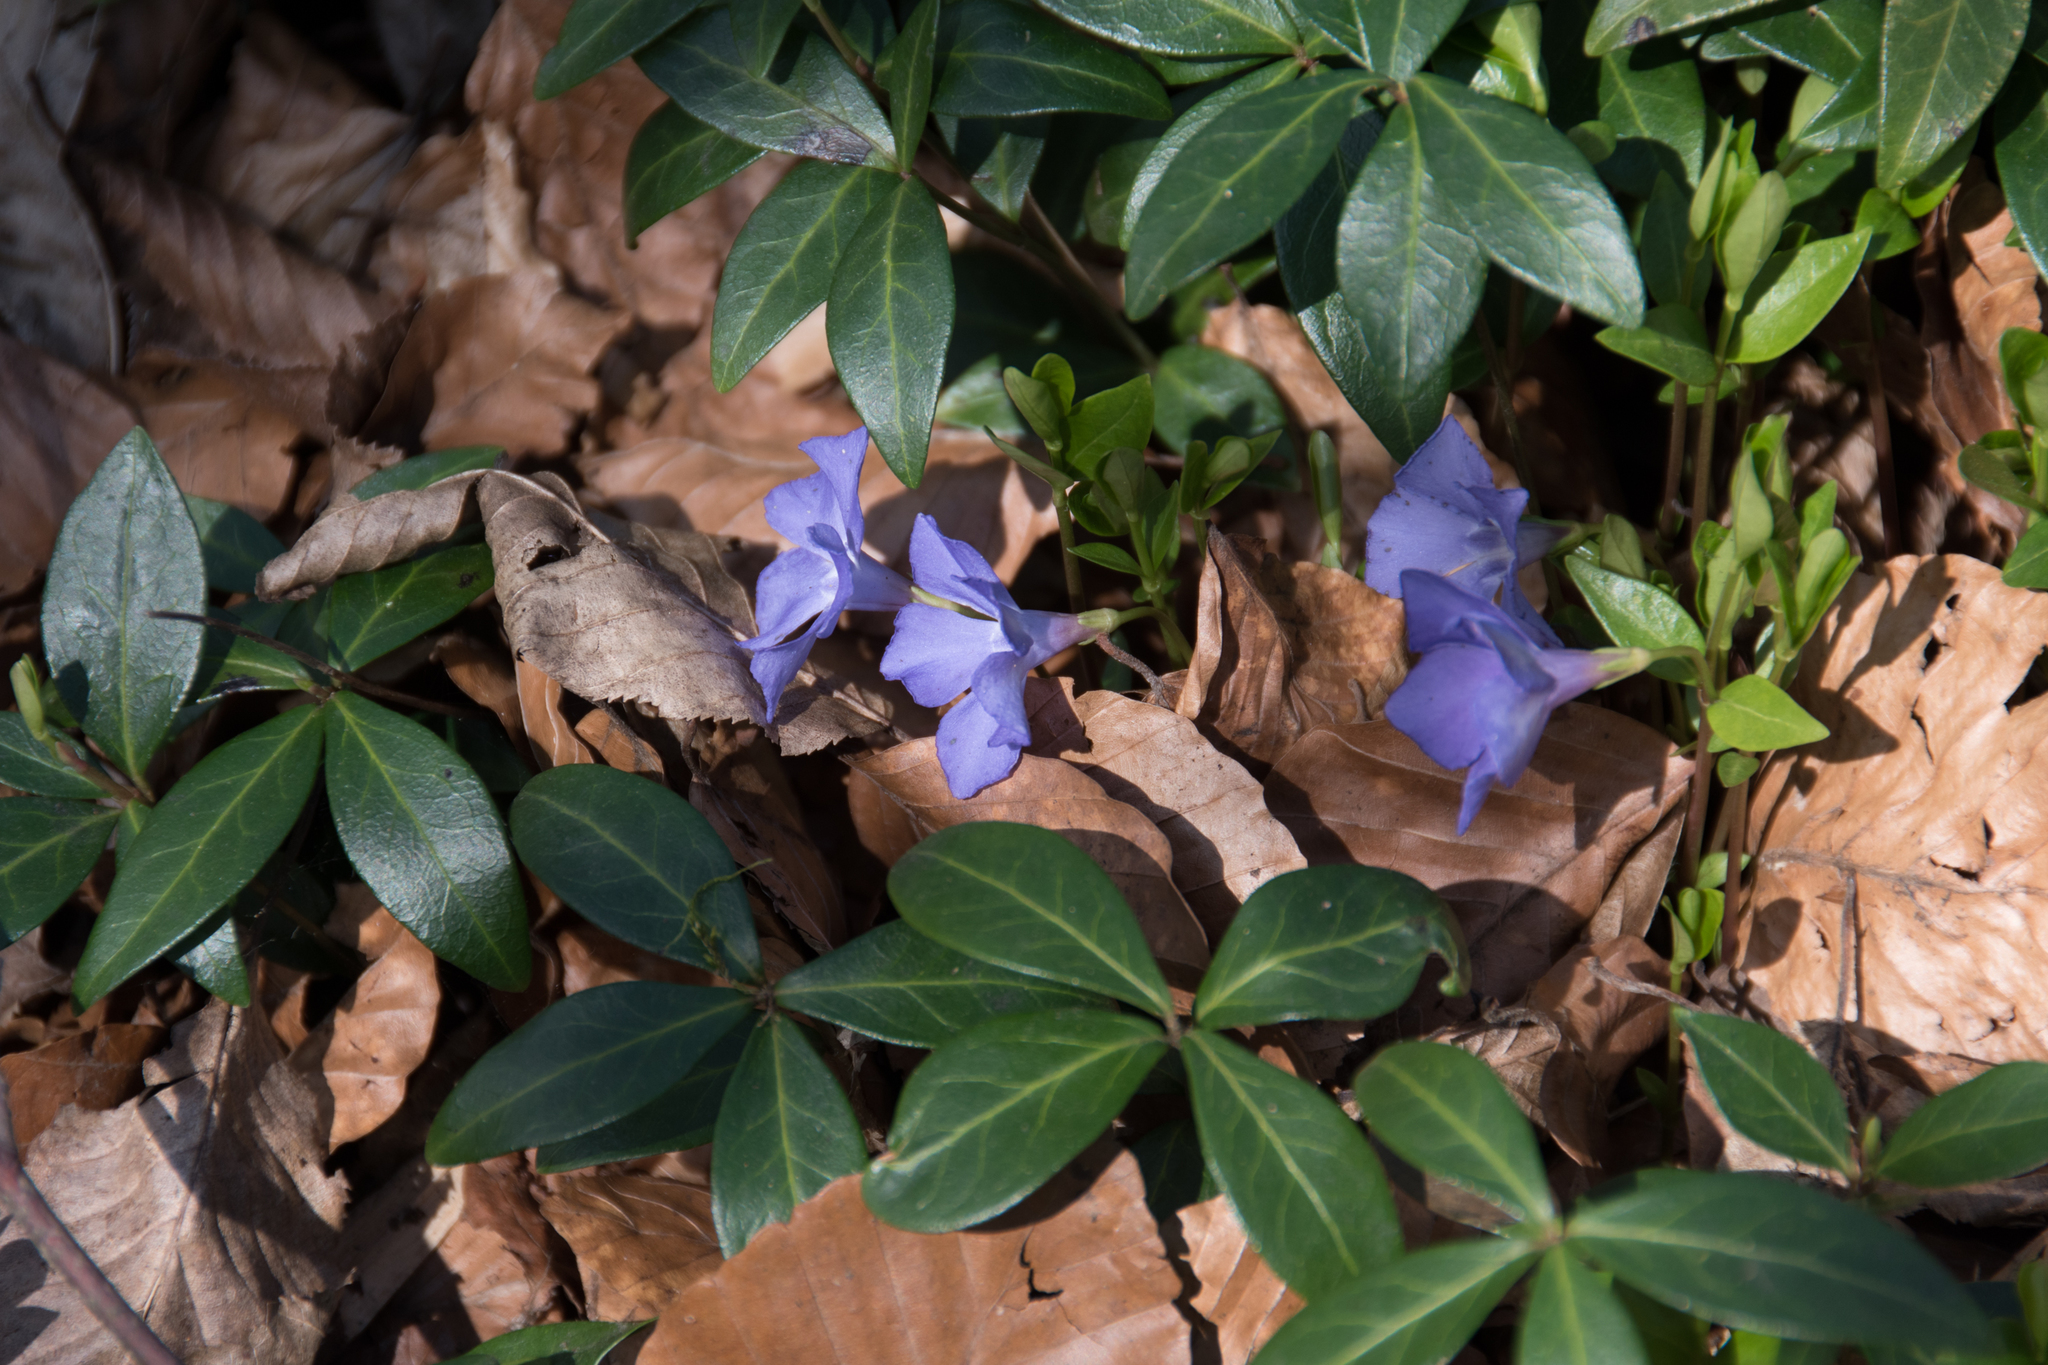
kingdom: Plantae
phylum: Tracheophyta
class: Magnoliopsida
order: Gentianales
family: Apocynaceae
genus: Vinca
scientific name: Vinca minor
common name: Lesser periwinkle
